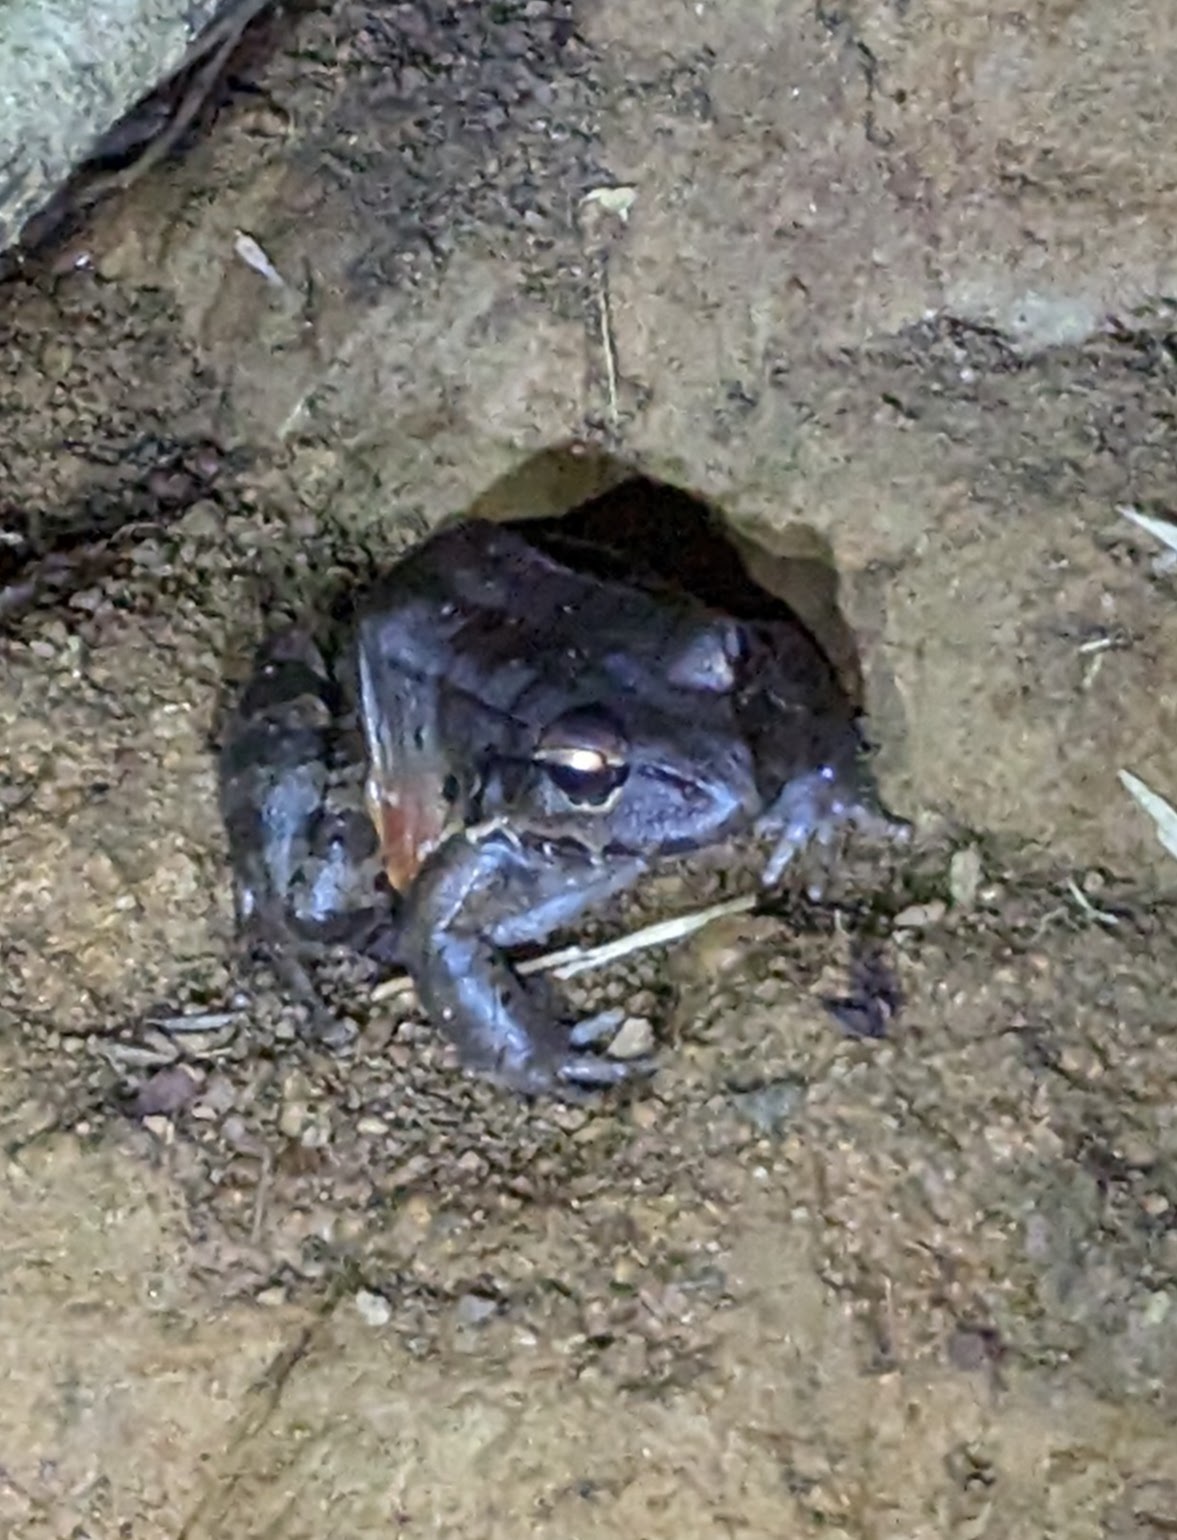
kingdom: Animalia
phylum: Chordata
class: Amphibia
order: Anura
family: Leptodactylidae
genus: Leptodactylus
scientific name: Leptodactylus savagei
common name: Savage's thin-toed frog
